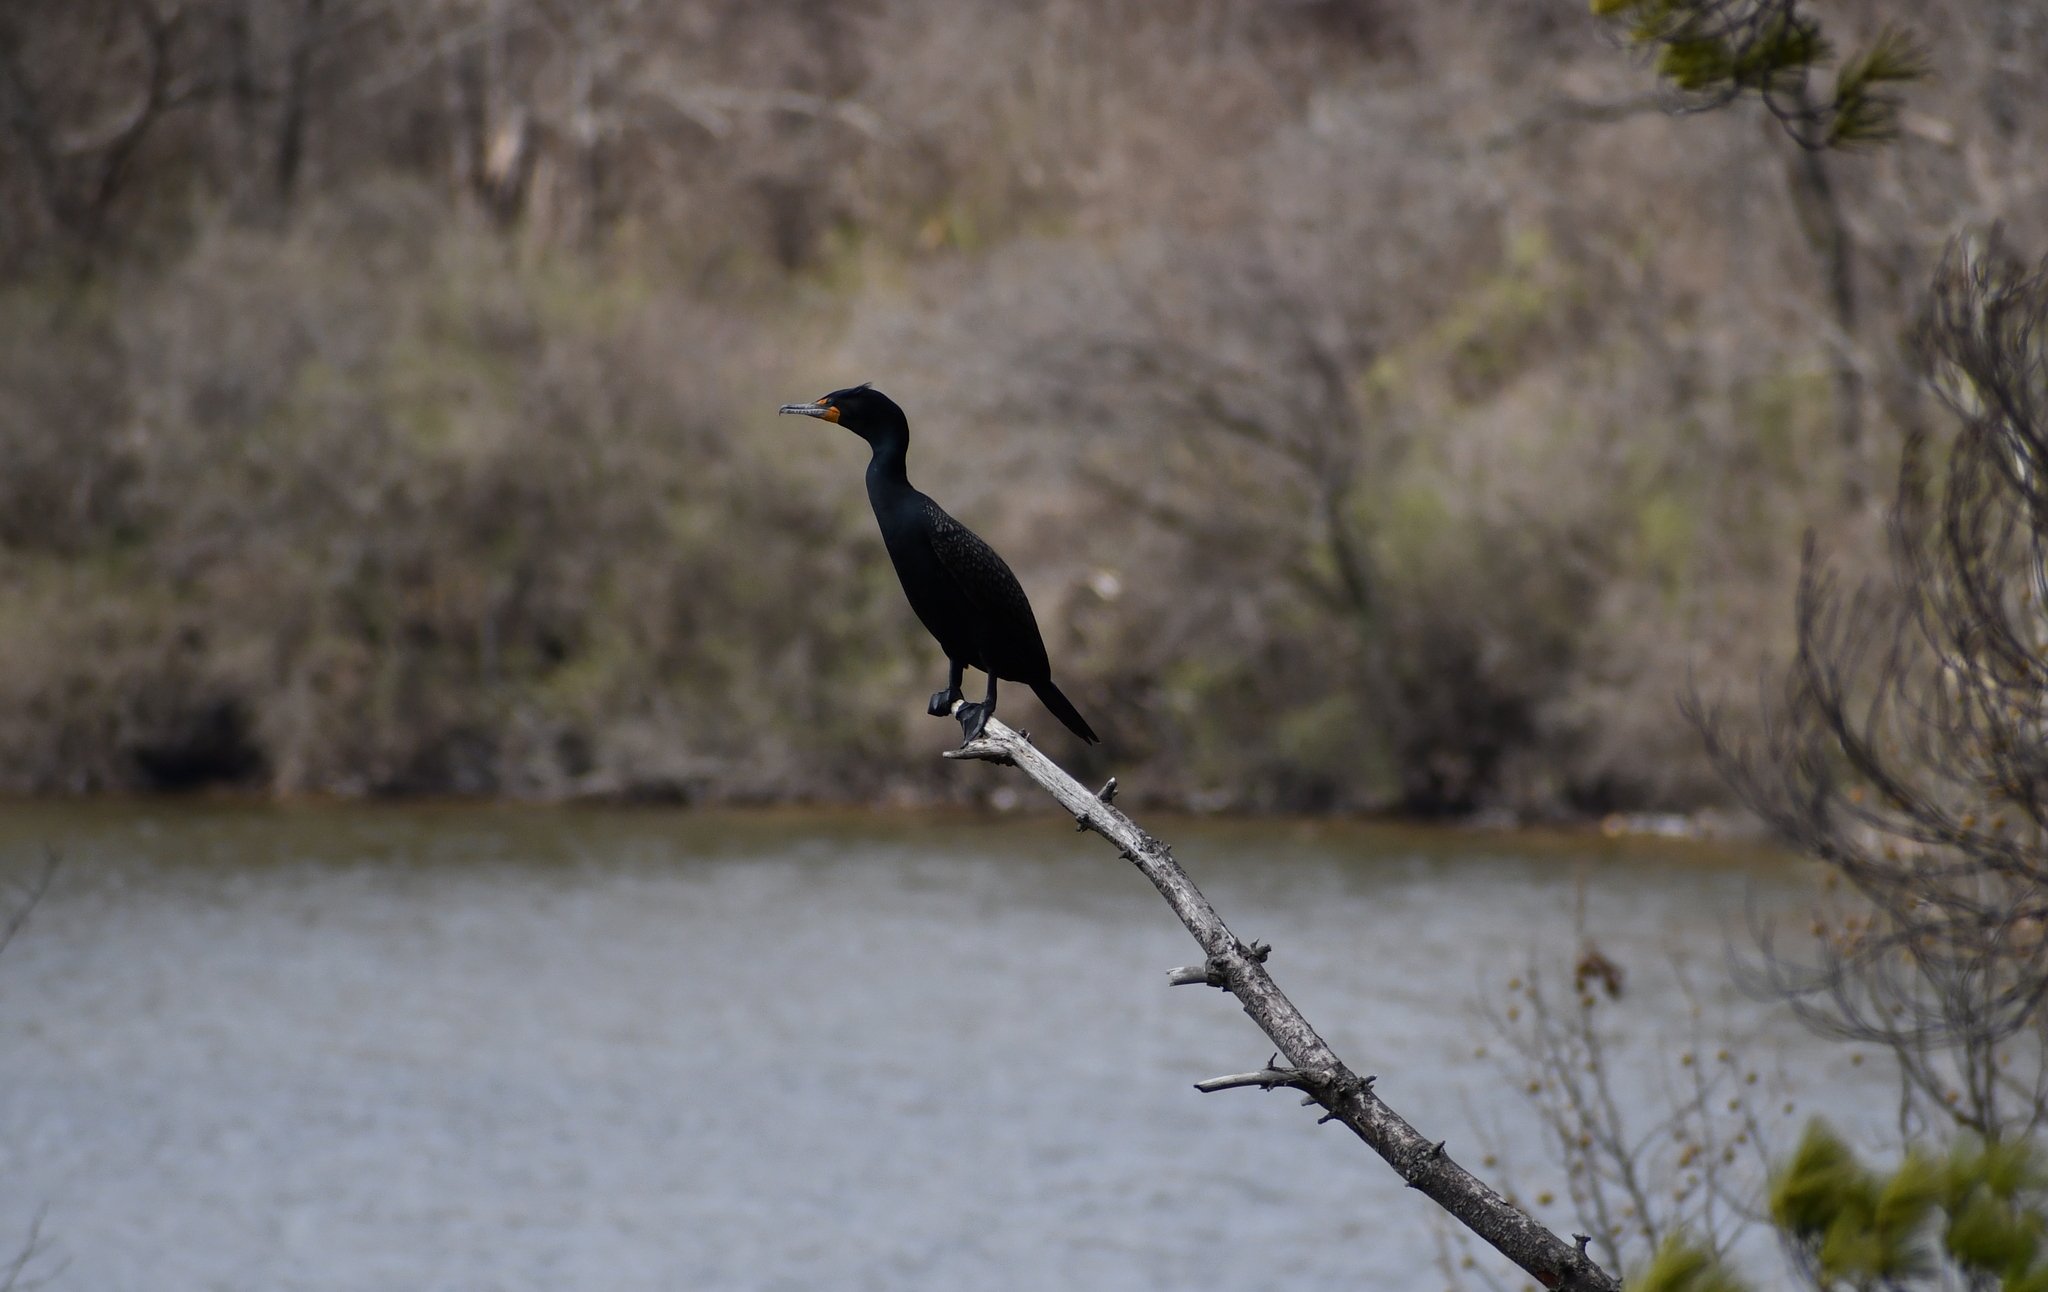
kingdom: Animalia
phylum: Chordata
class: Aves
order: Suliformes
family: Phalacrocoracidae
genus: Phalacrocorax
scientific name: Phalacrocorax auritus
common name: Double-crested cormorant
